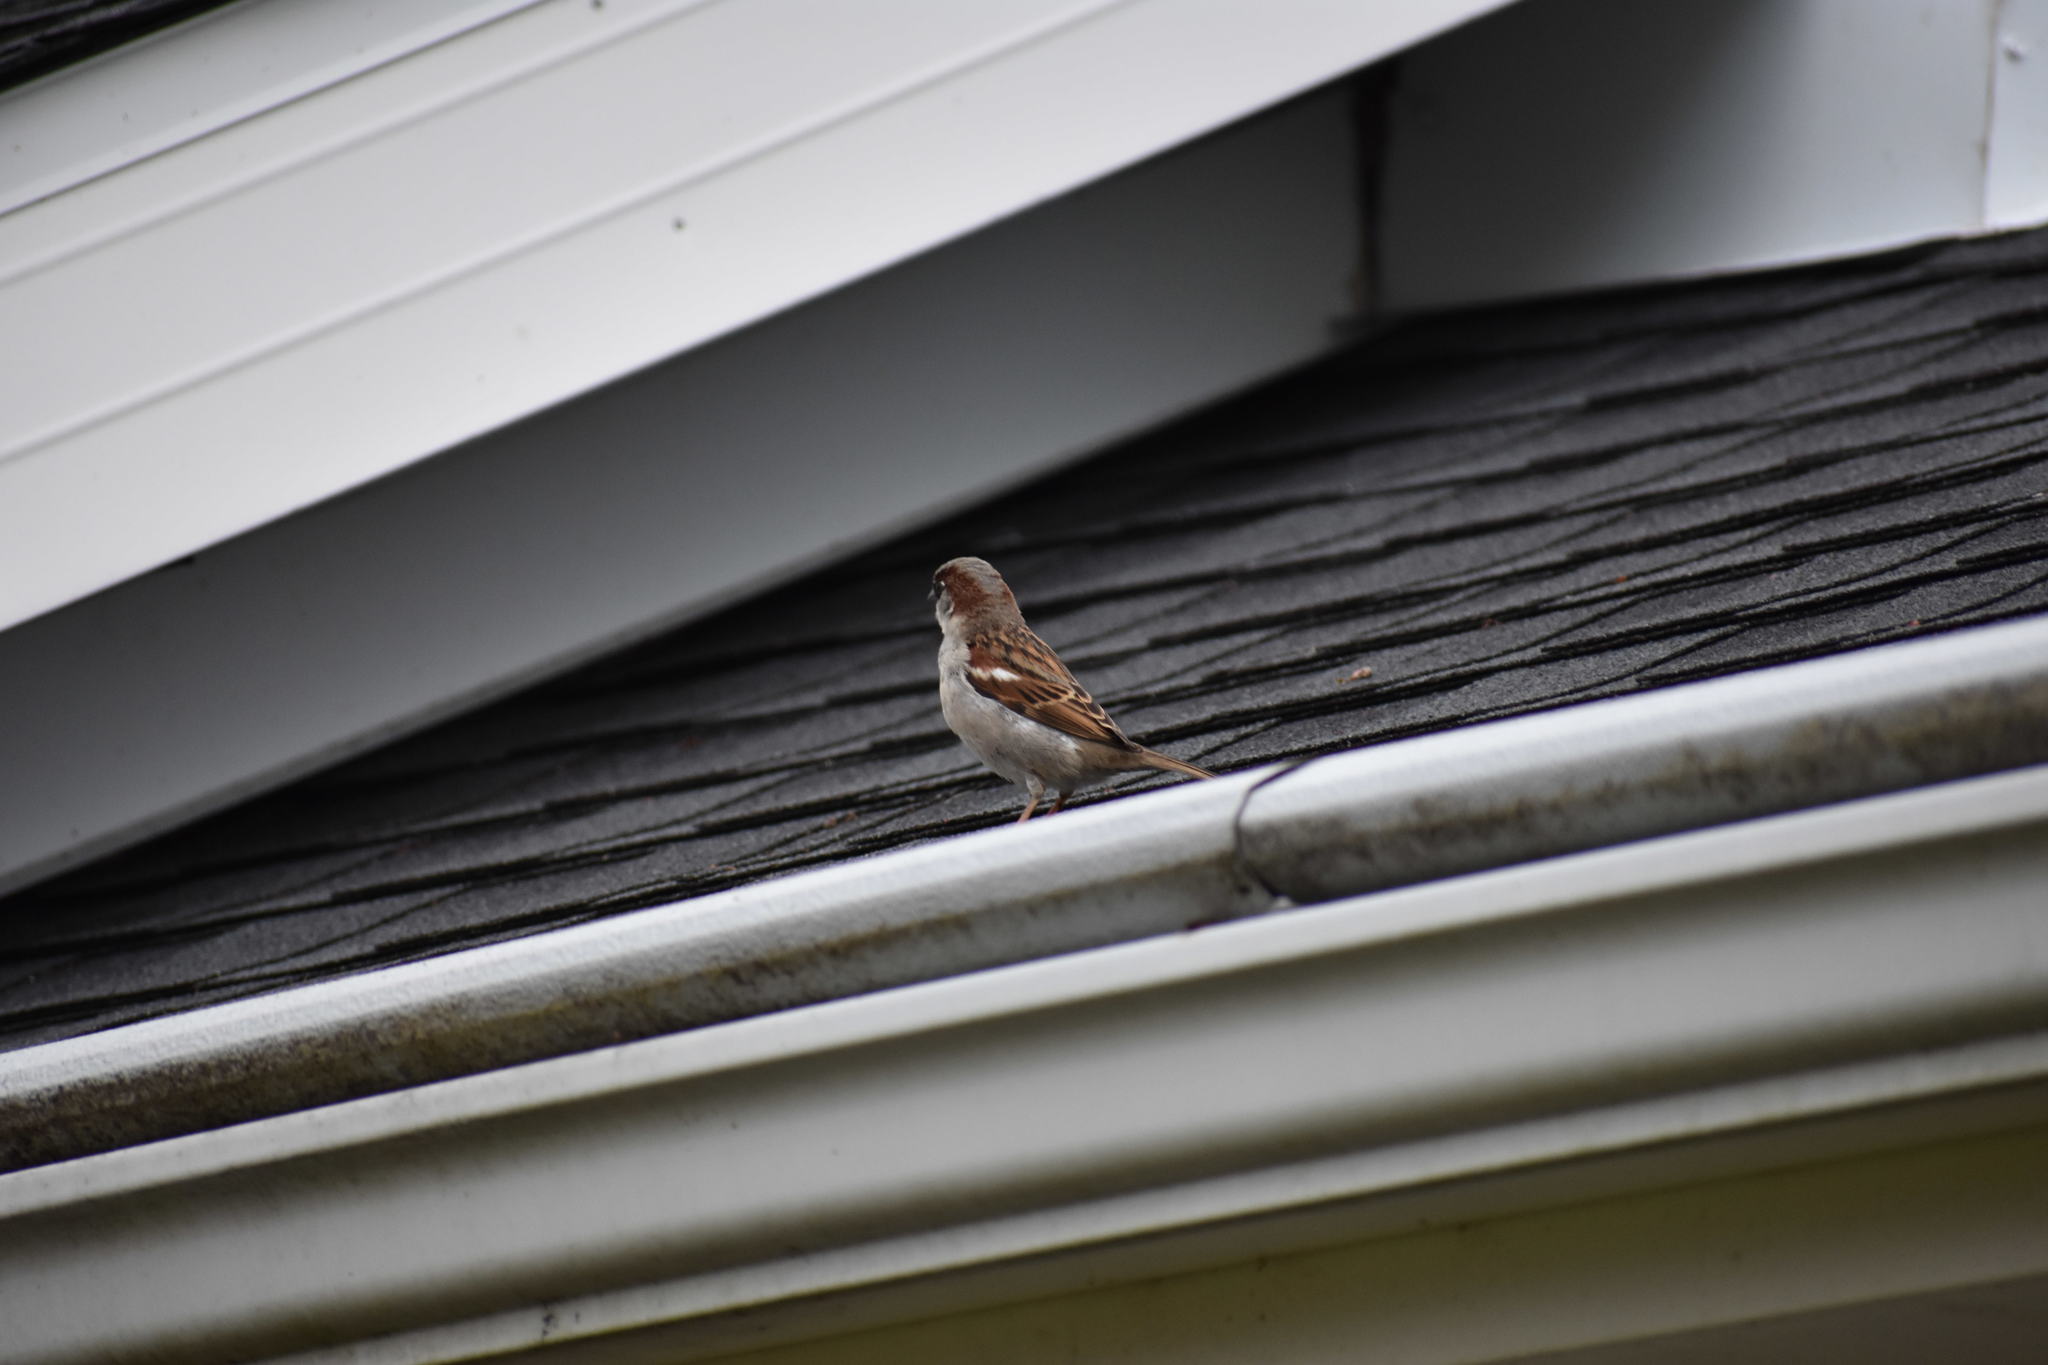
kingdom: Animalia
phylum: Chordata
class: Aves
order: Passeriformes
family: Passeridae
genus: Passer
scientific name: Passer domesticus
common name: House sparrow
